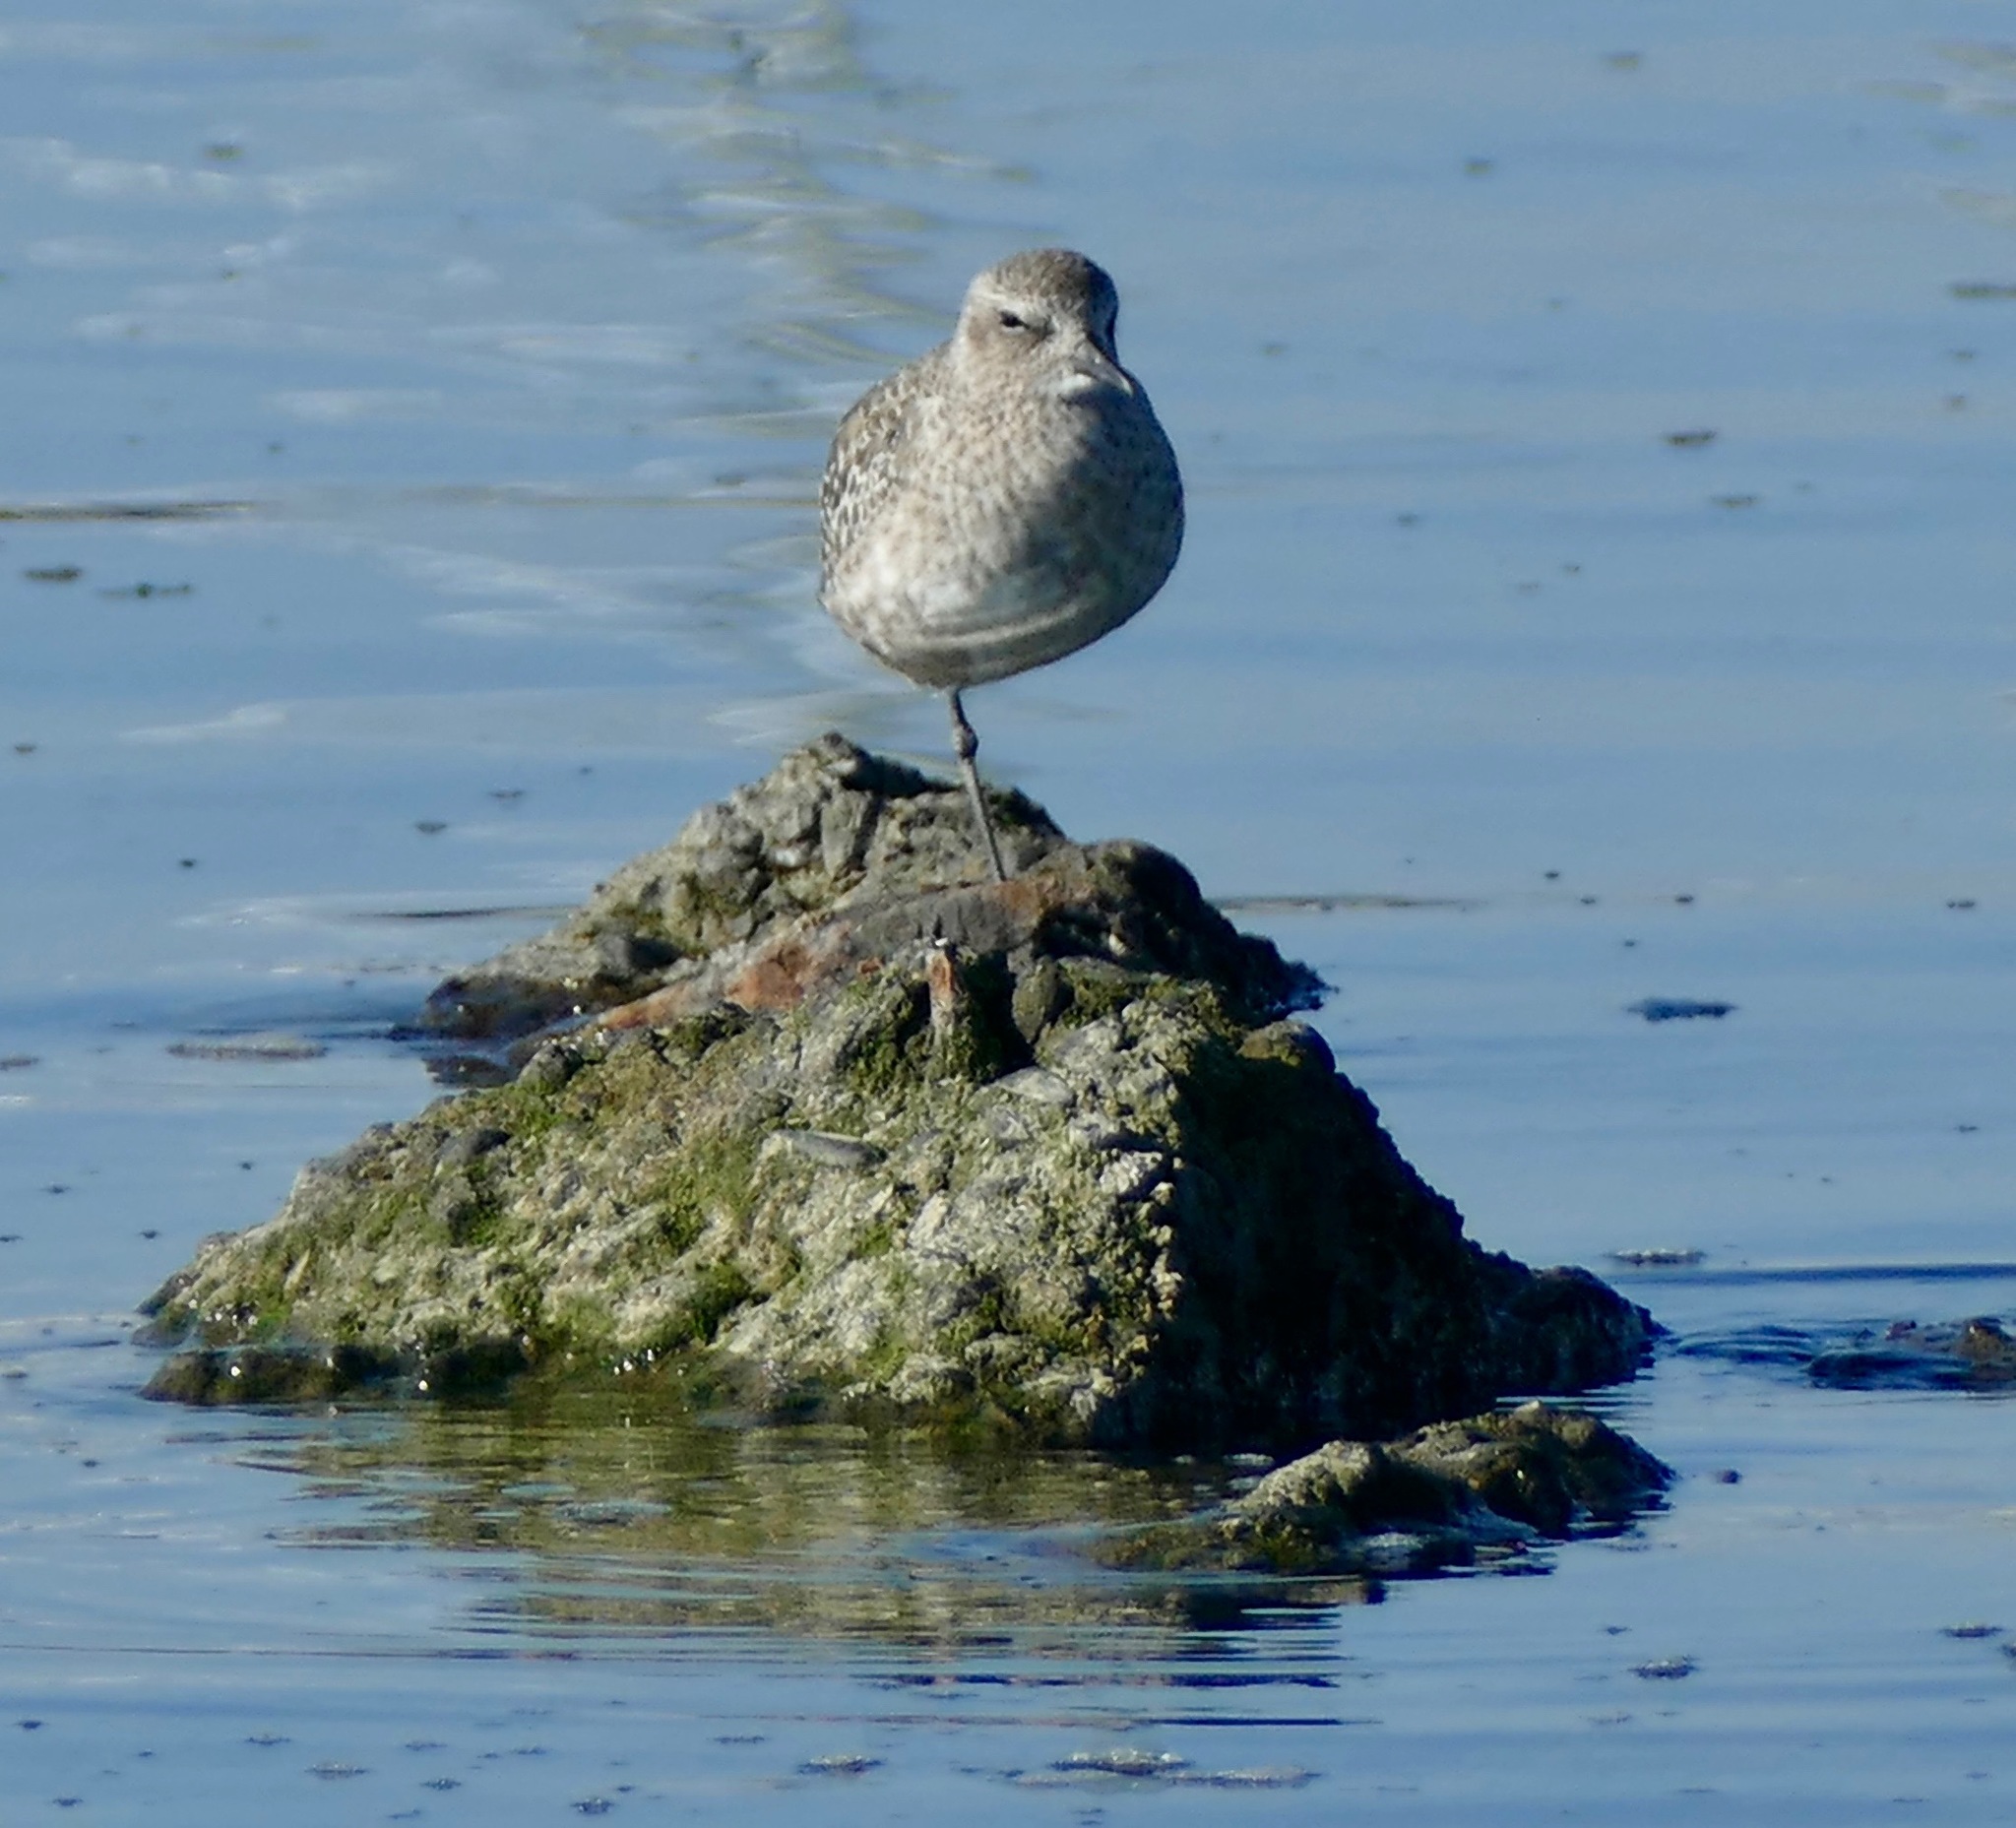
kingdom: Animalia
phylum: Chordata
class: Aves
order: Charadriiformes
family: Charadriidae
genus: Pluvialis
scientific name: Pluvialis squatarola
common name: Grey plover
